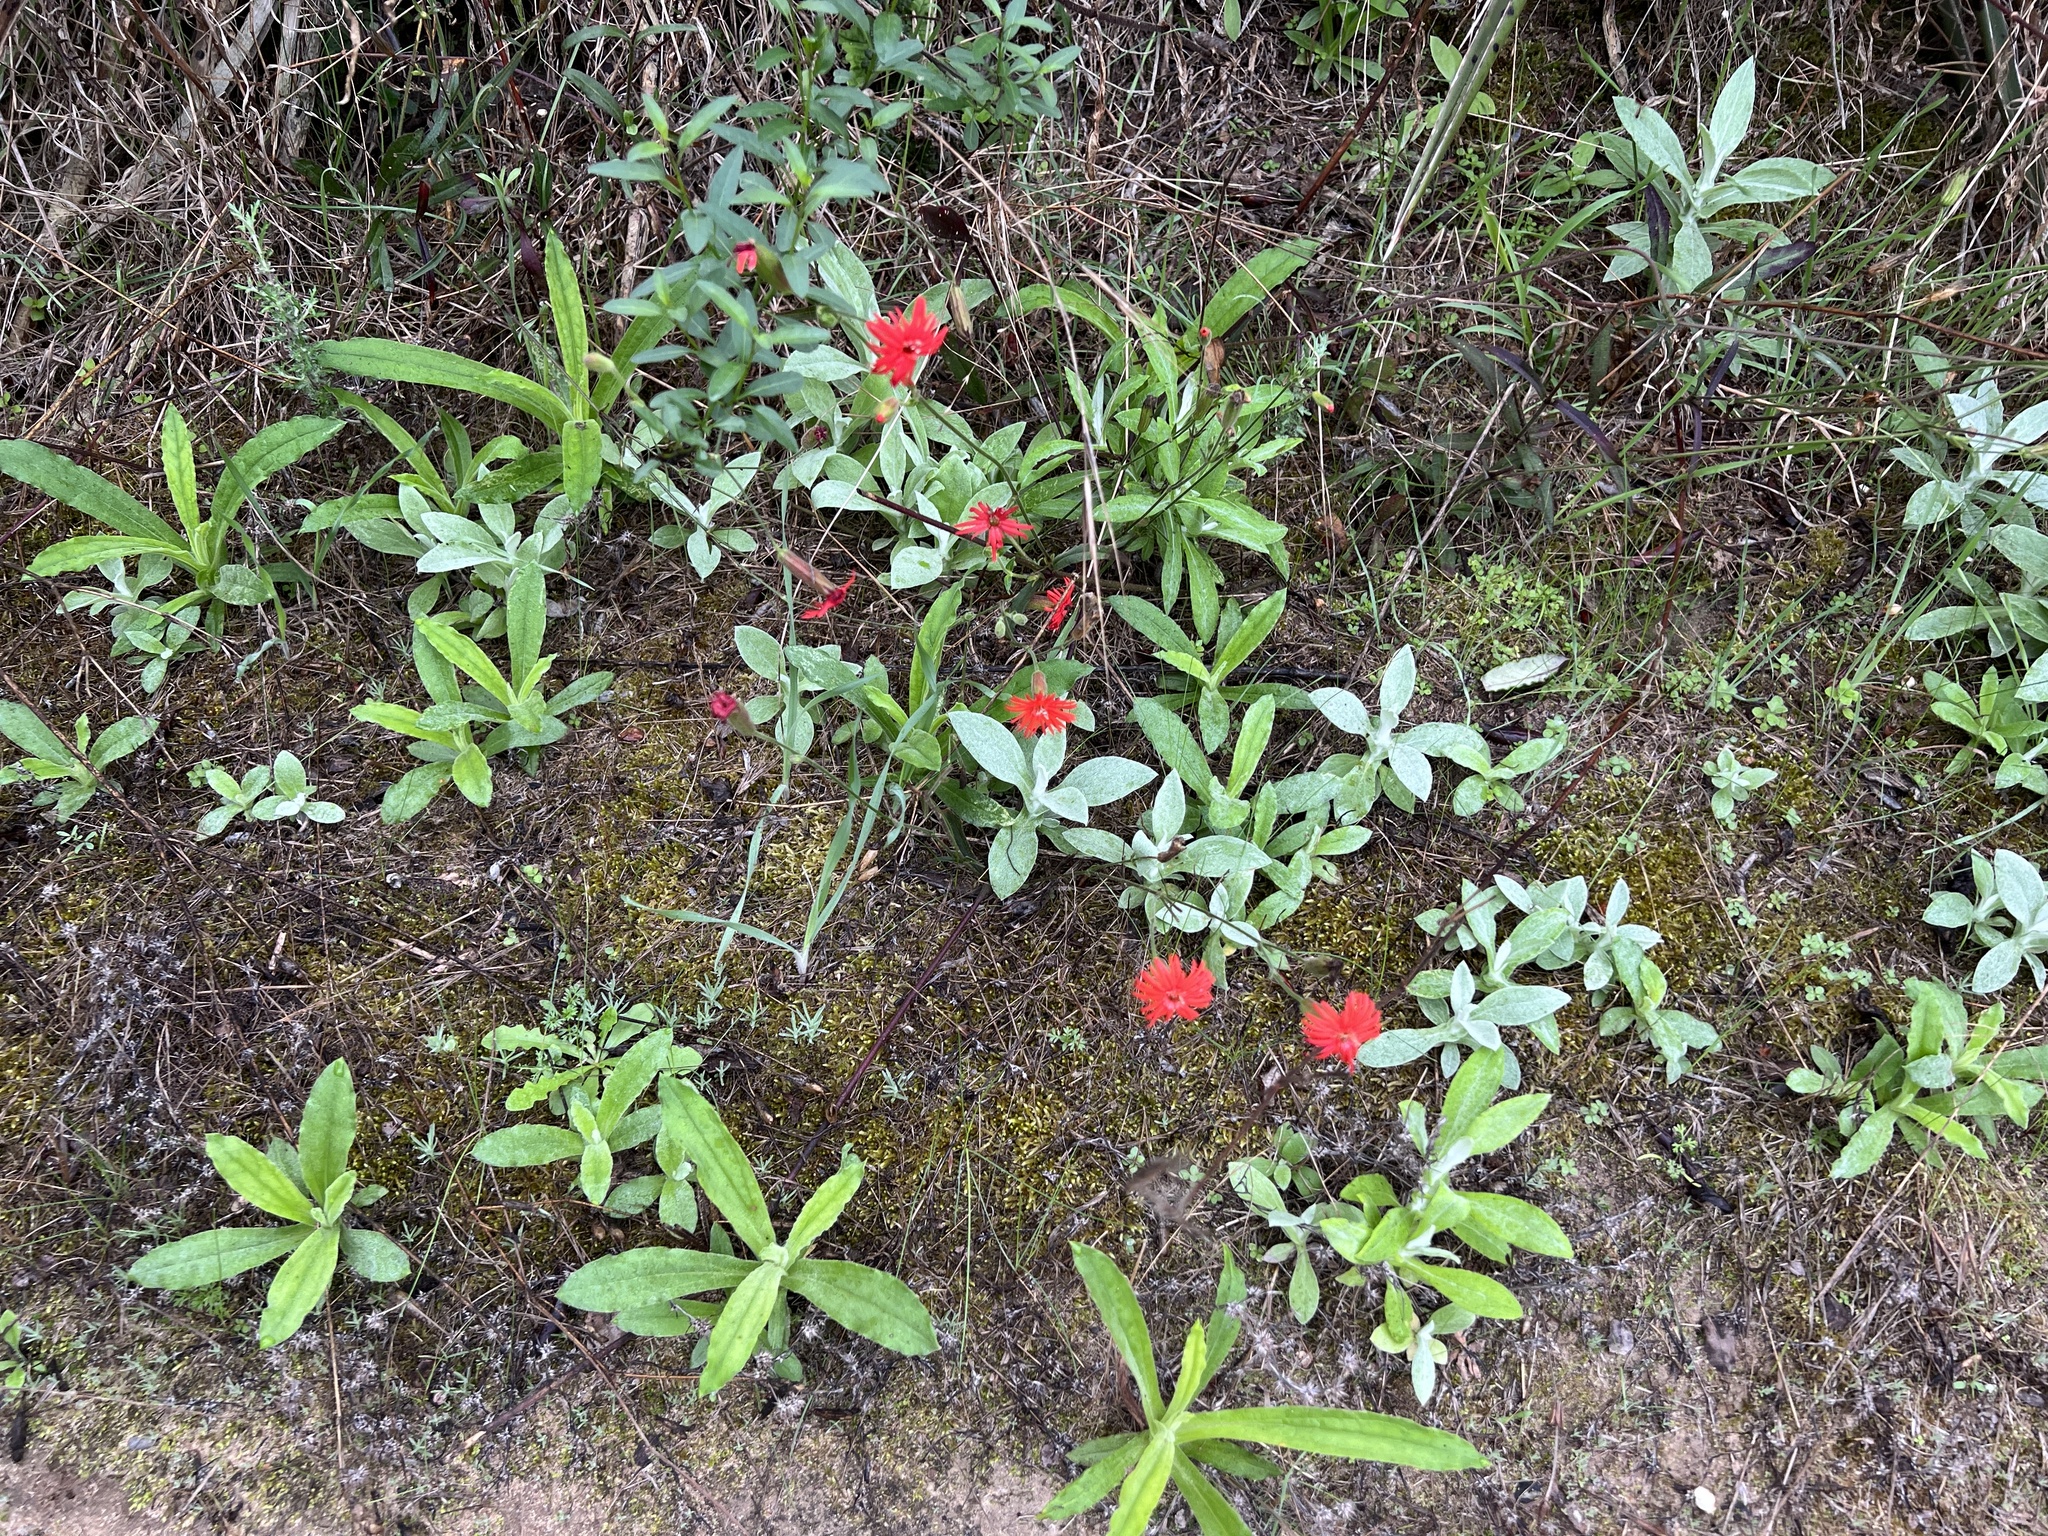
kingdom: Plantae
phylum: Tracheophyta
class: Magnoliopsida
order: Caryophyllales
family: Caryophyllaceae
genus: Silene
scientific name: Silene laciniata
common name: Indian-pink
